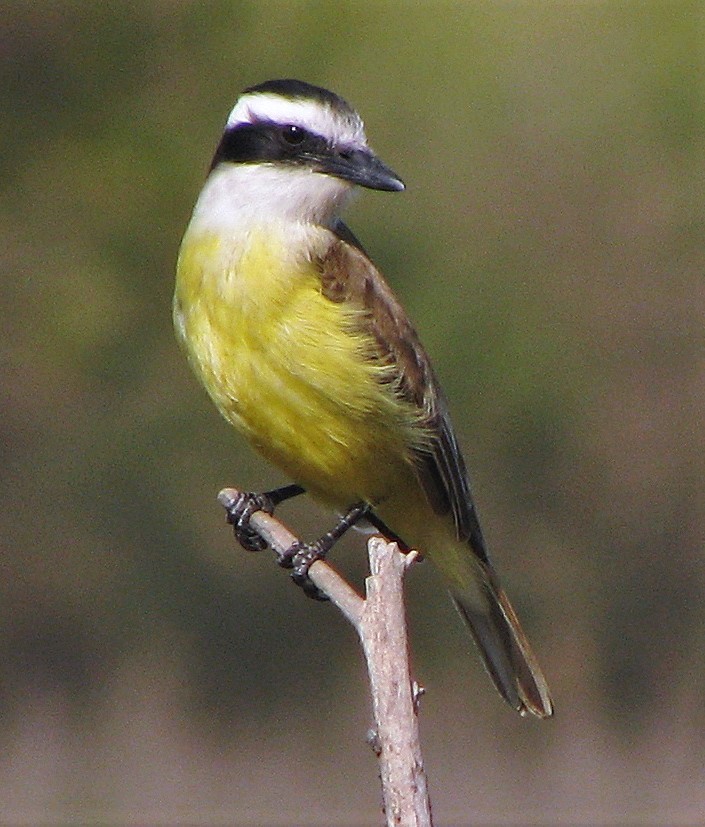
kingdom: Animalia
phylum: Chordata
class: Aves
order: Passeriformes
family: Tyrannidae
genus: Pitangus
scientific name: Pitangus sulphuratus
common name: Great kiskadee
